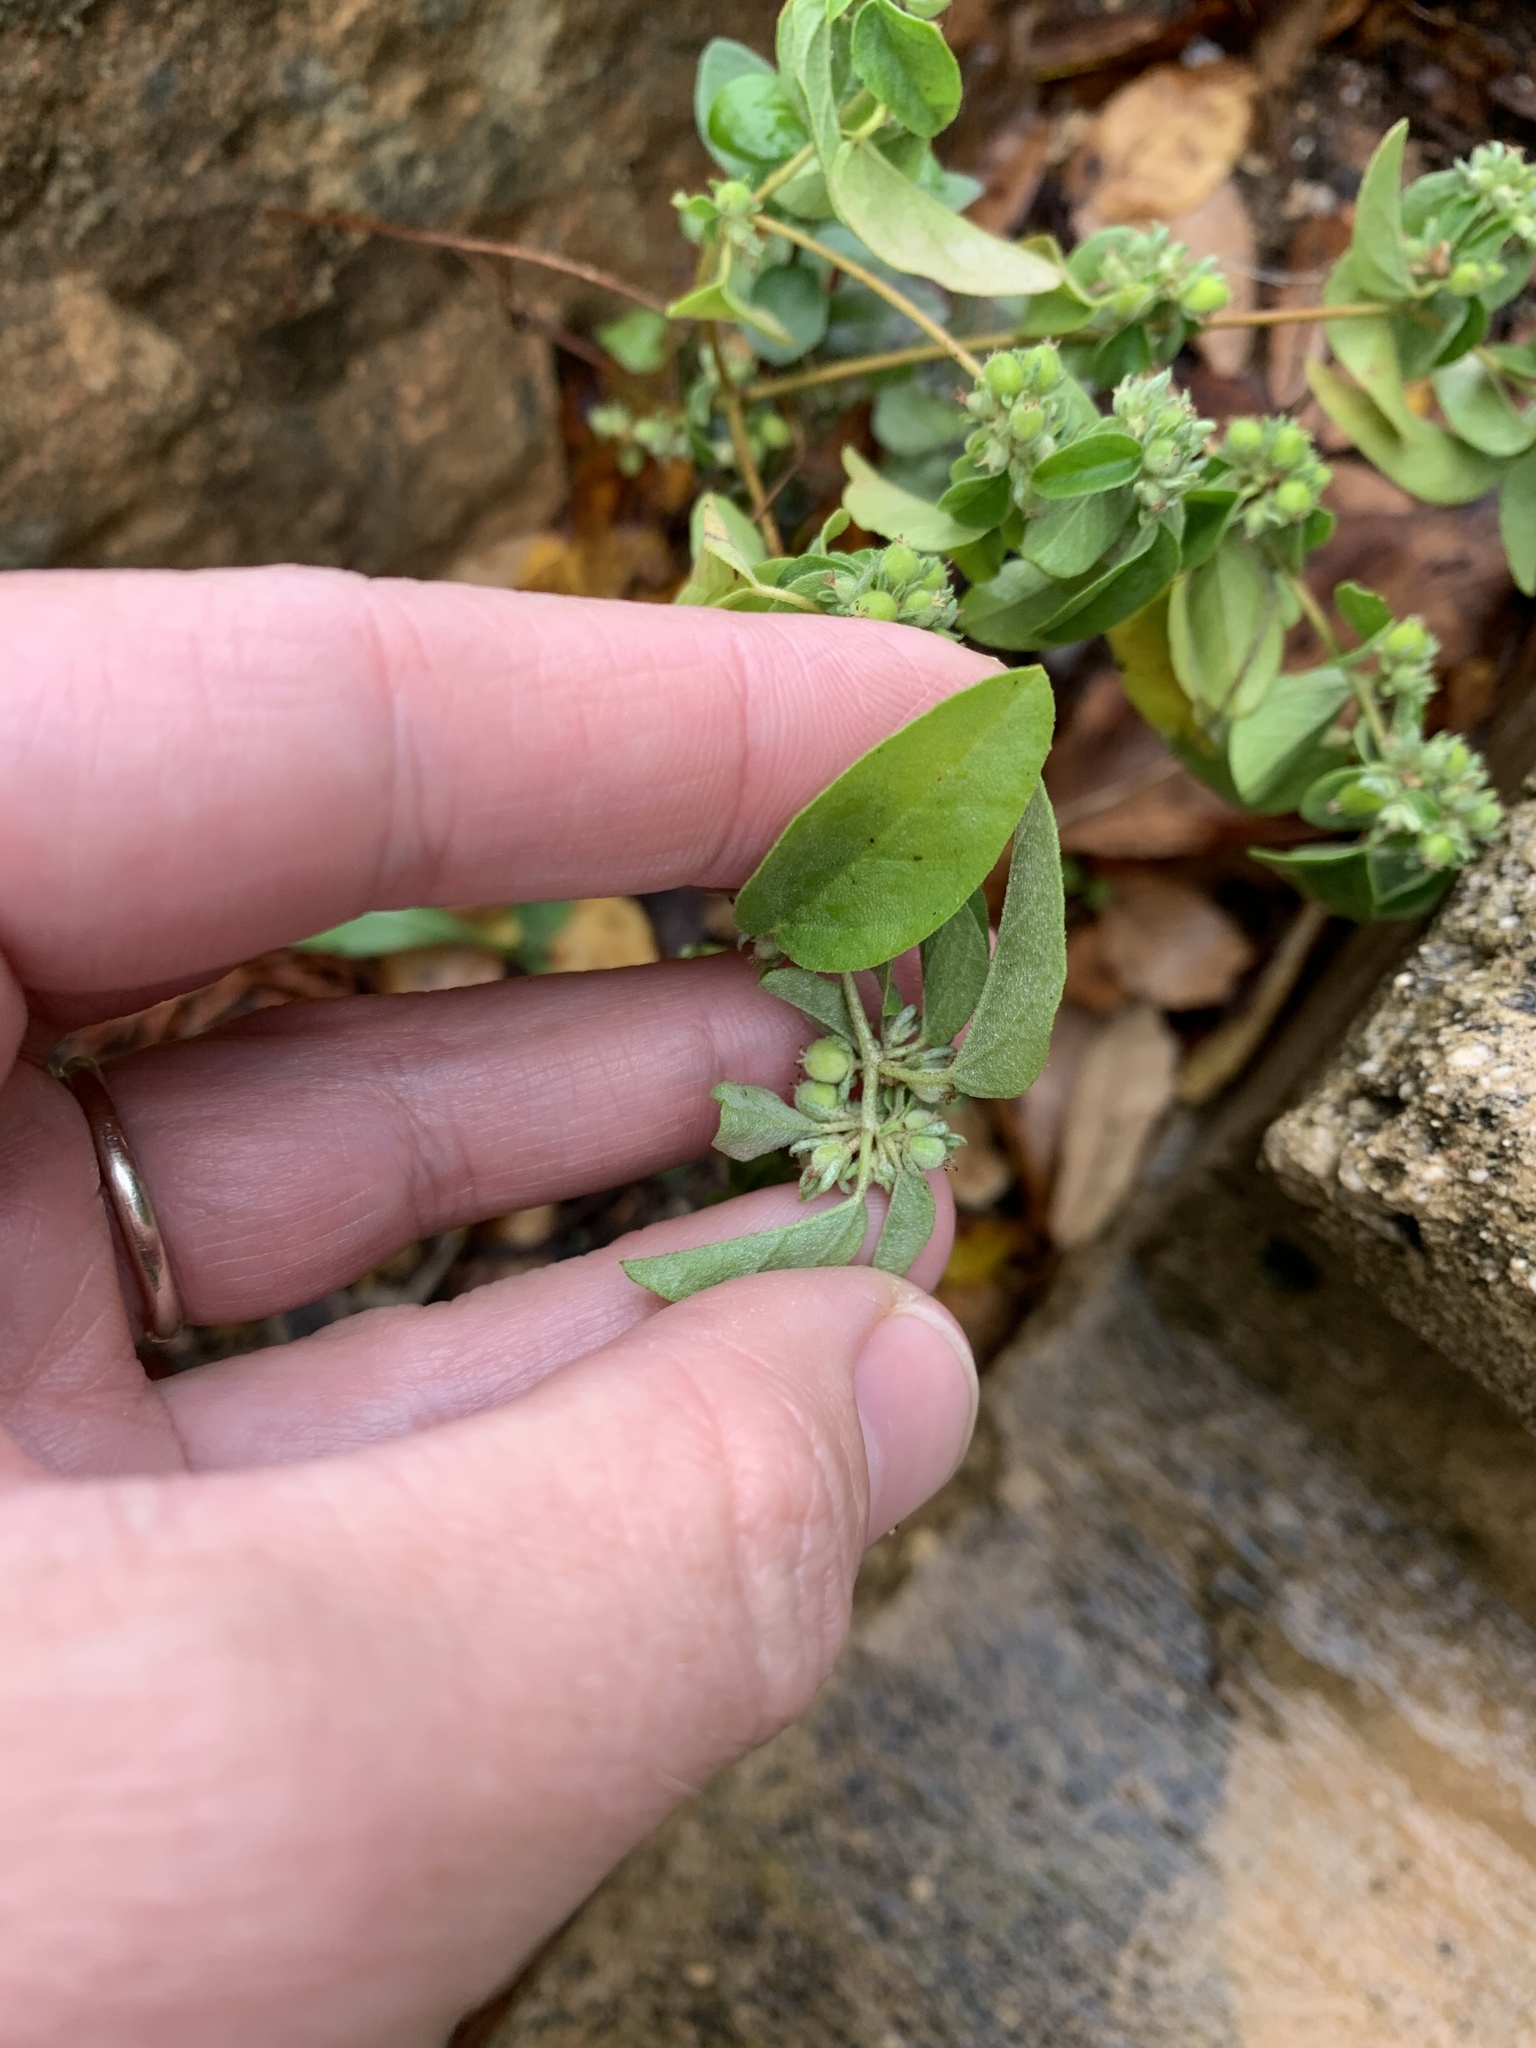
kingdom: Plantae
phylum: Tracheophyta
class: Magnoliopsida
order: Malpighiales
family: Euphorbiaceae
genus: Croton
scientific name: Croton monanthogynus
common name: One-seed croton
